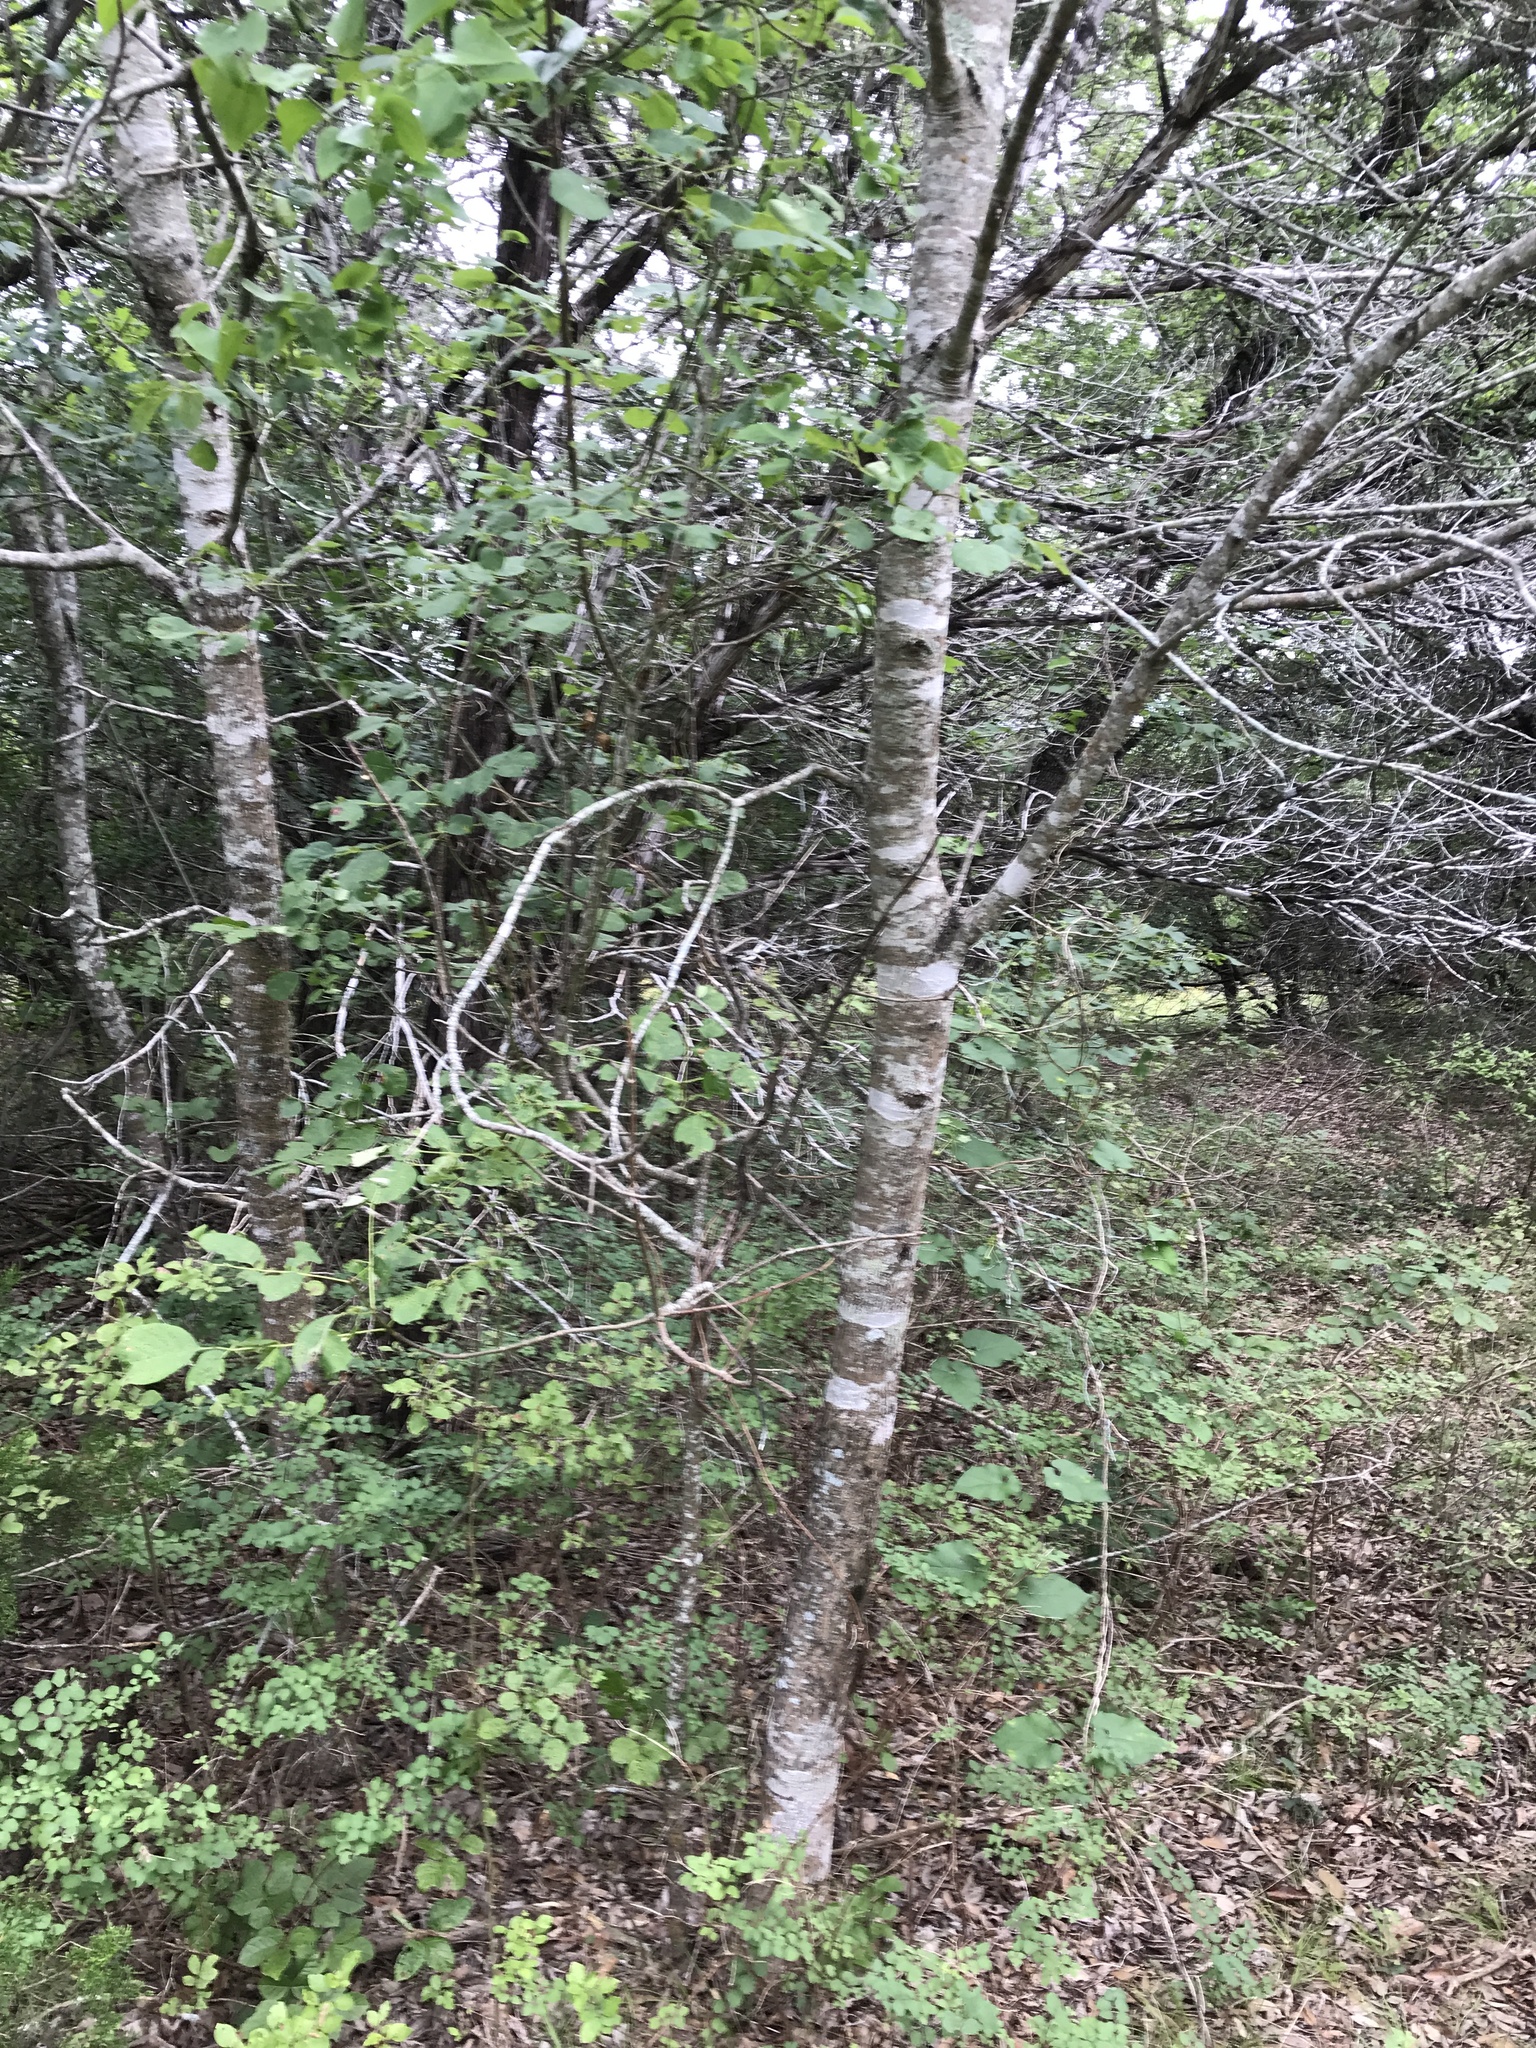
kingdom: Plantae
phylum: Tracheophyta
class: Magnoliopsida
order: Lamiales
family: Oleaceae
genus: Fraxinus
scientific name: Fraxinus albicans
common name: Texas ash
